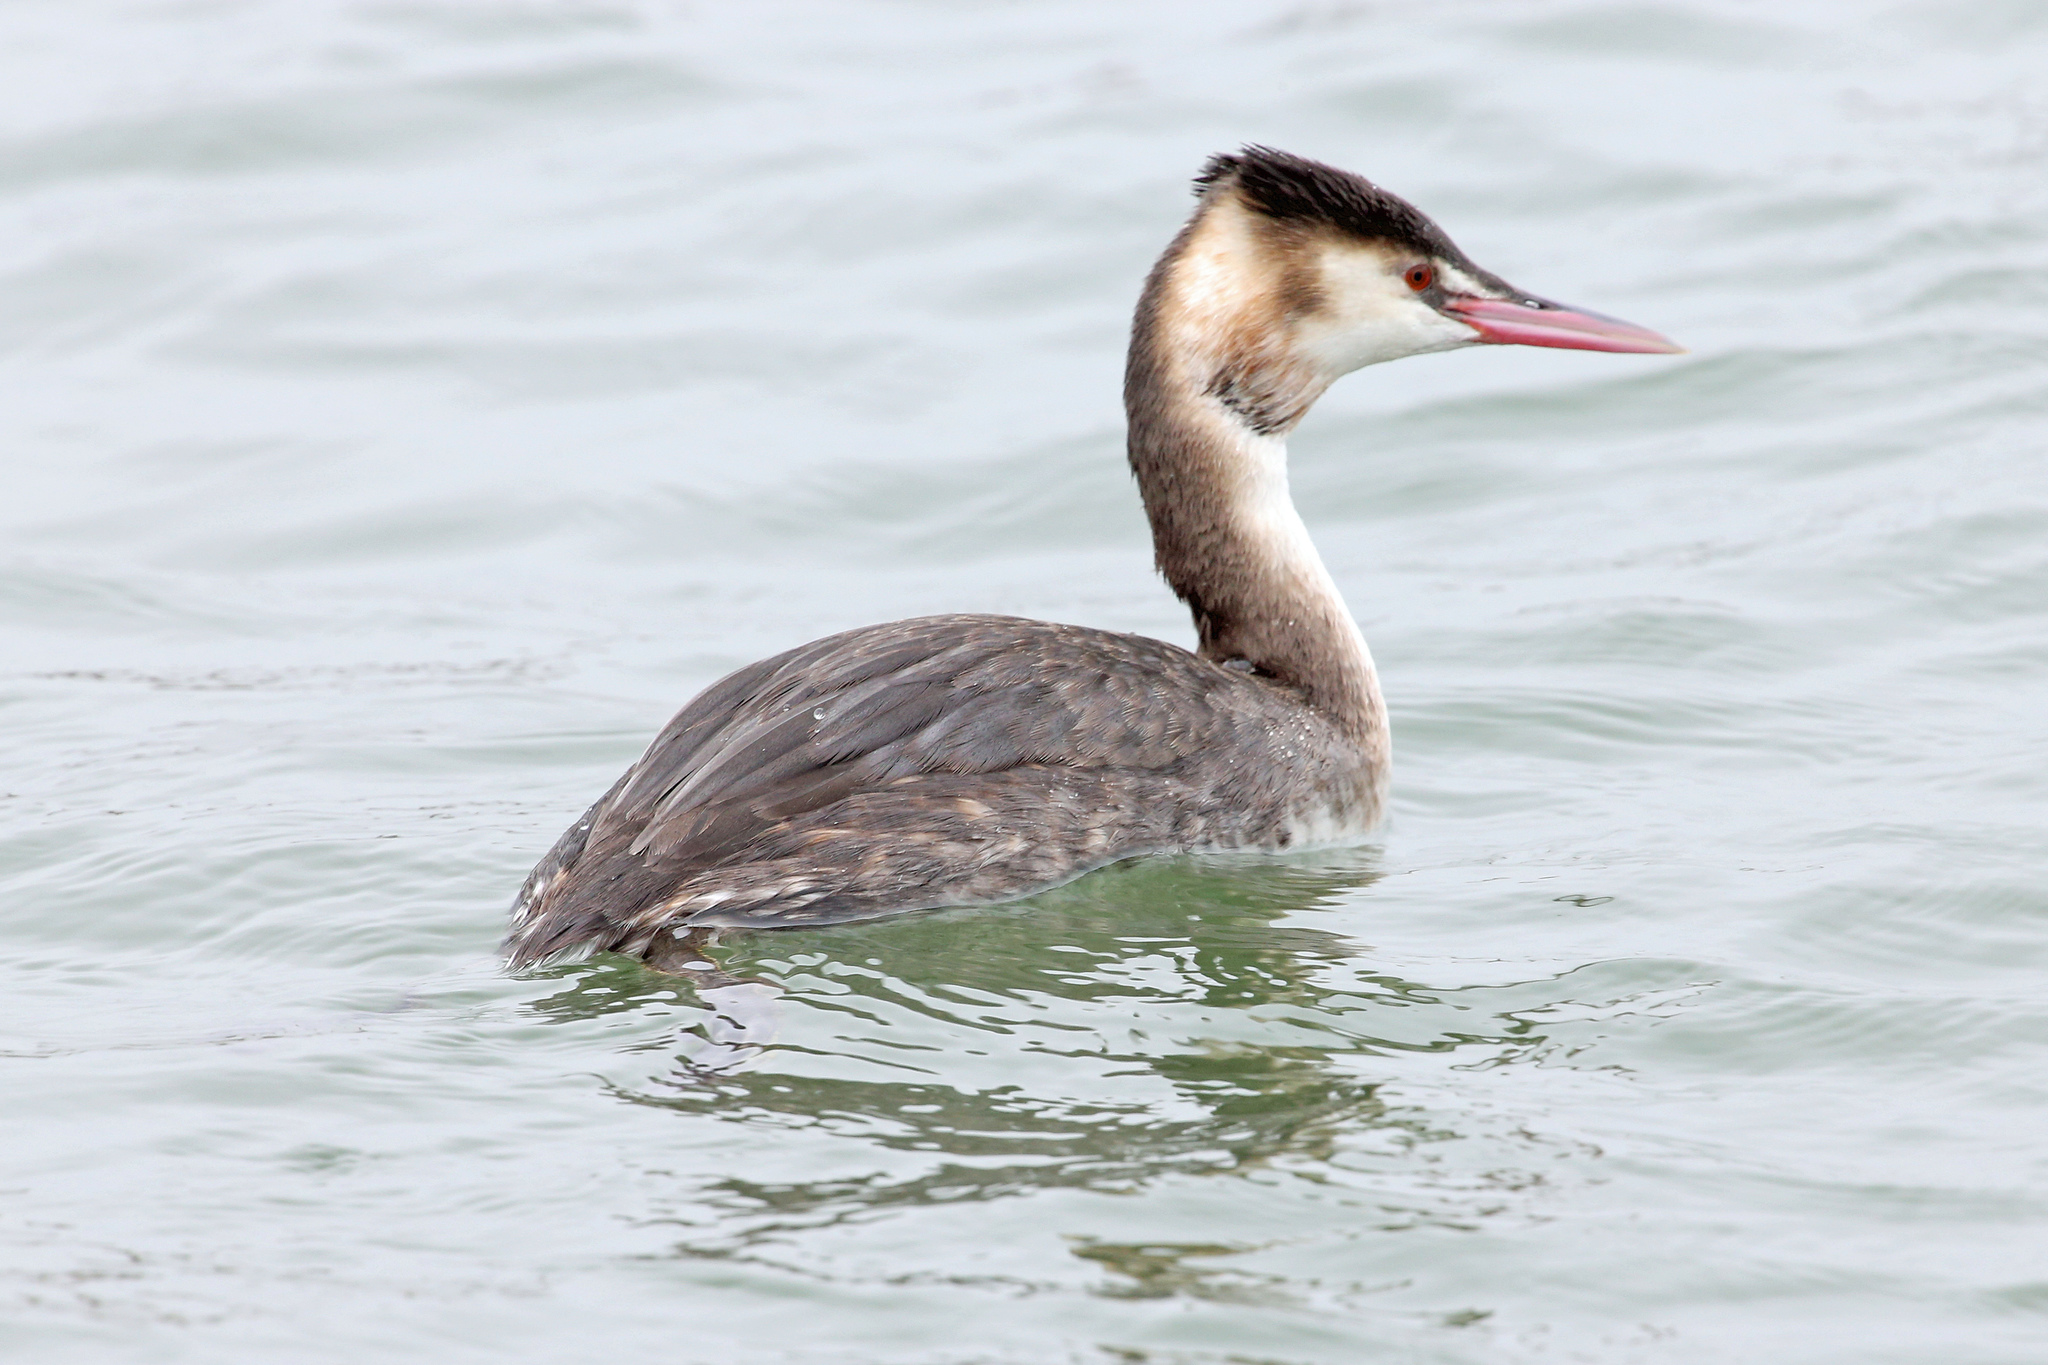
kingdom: Animalia
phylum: Chordata
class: Aves
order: Podicipediformes
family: Podicipedidae
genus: Podiceps
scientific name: Podiceps cristatus
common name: Great crested grebe
